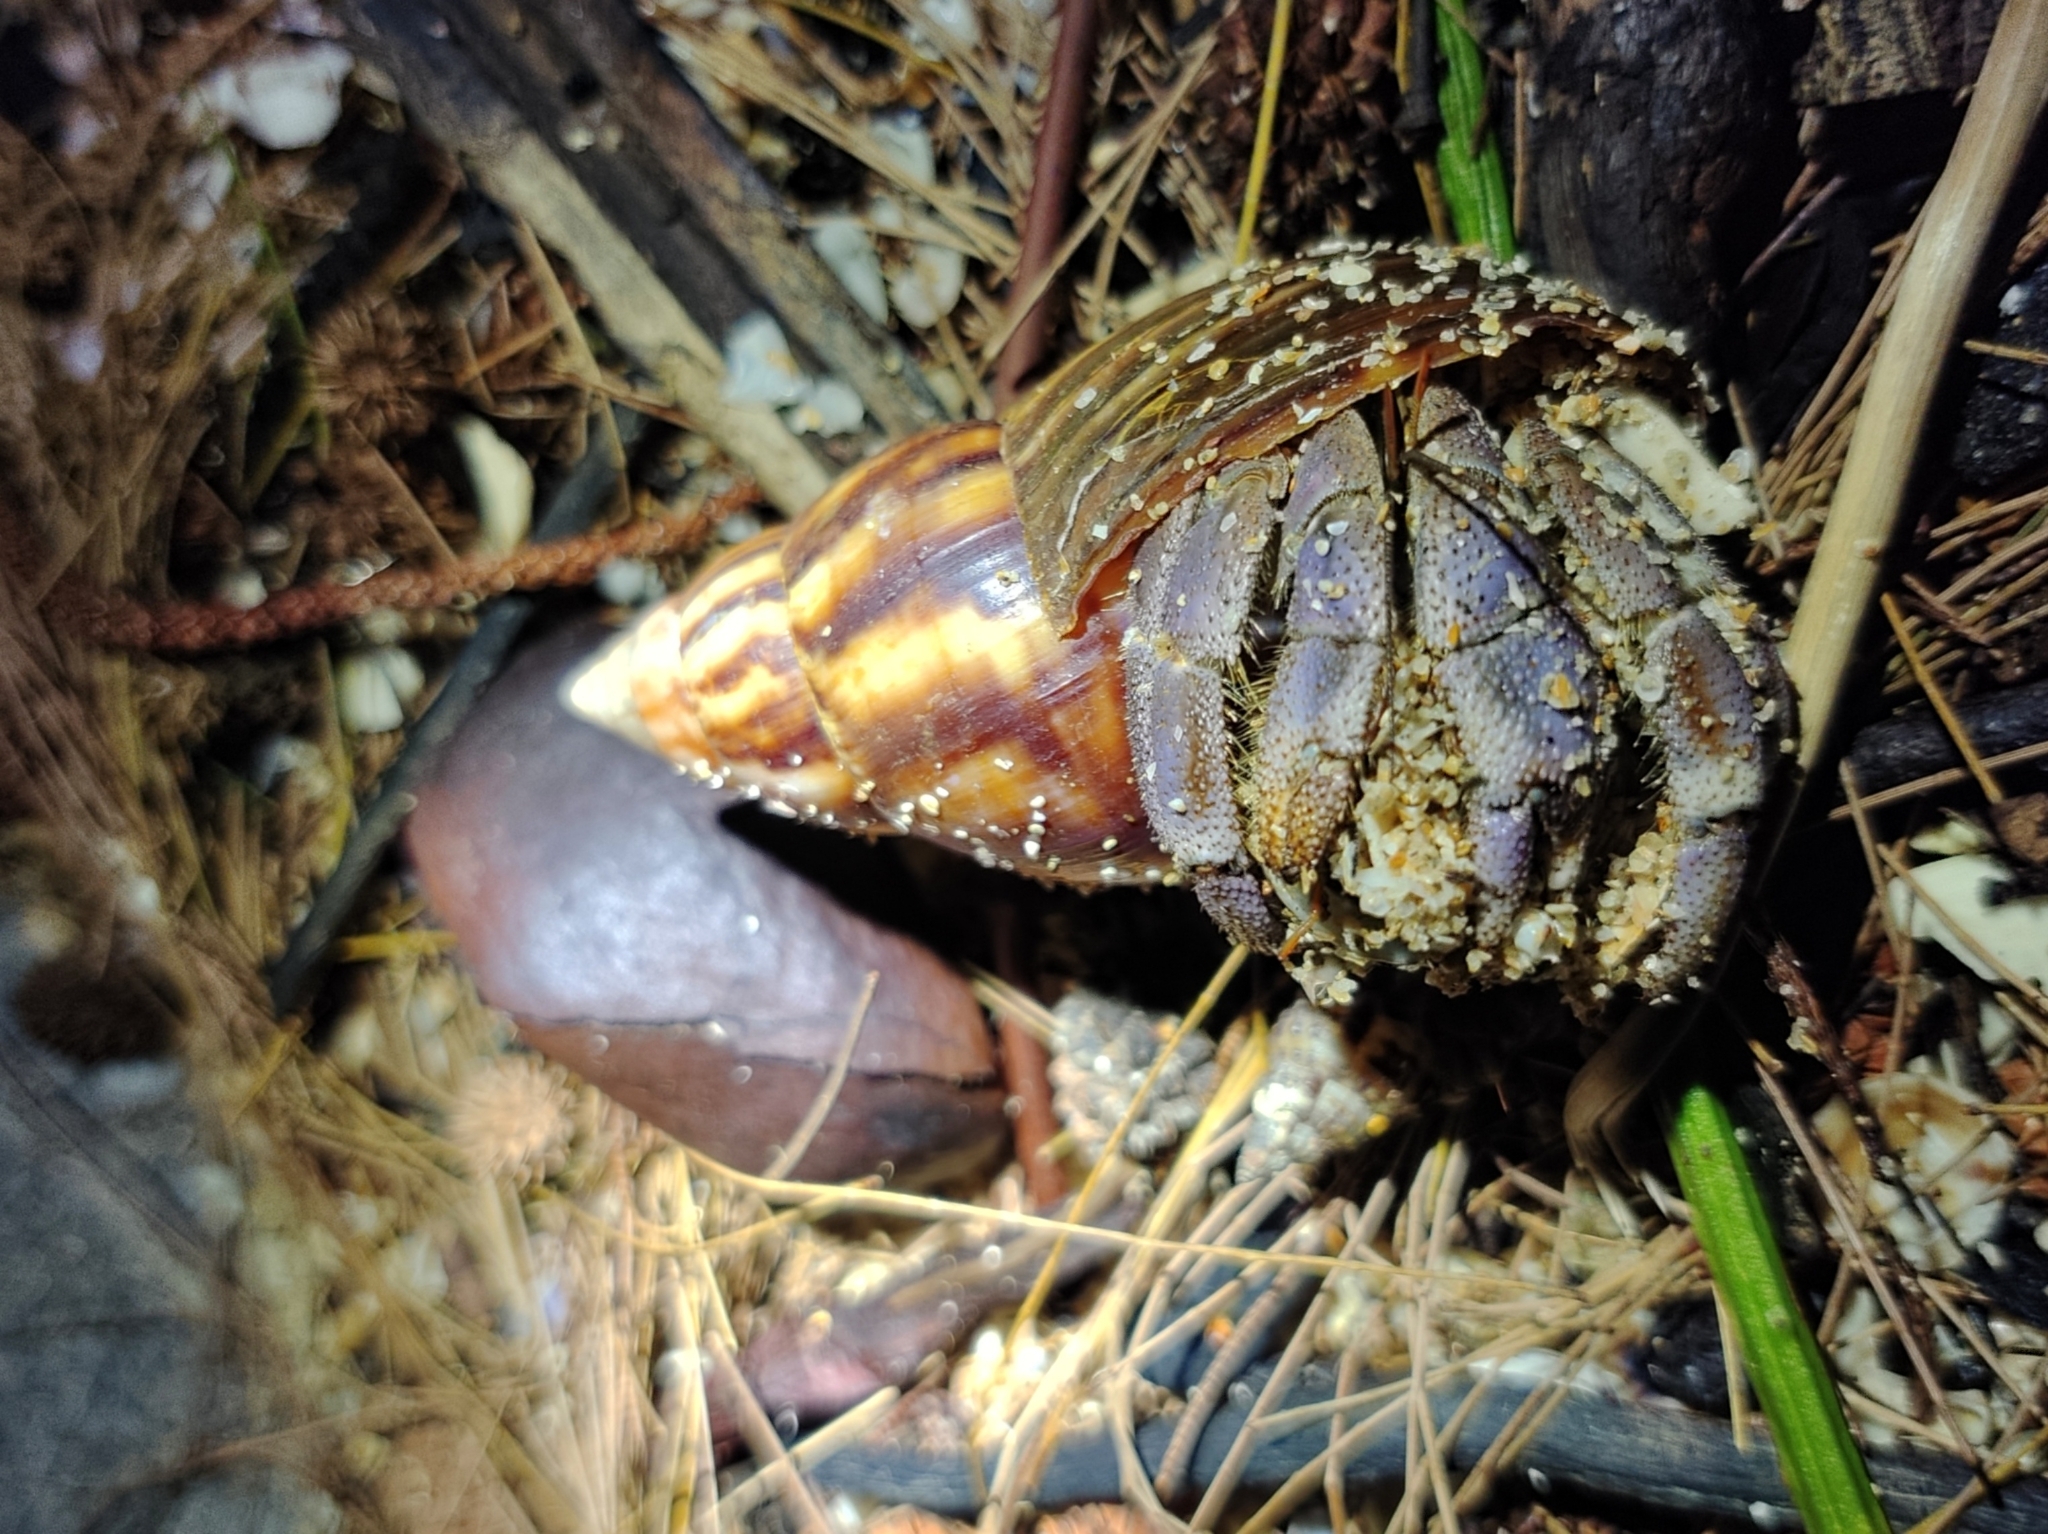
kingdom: Animalia
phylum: Arthropoda
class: Malacostraca
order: Decapoda
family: Coenobitidae
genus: Coenobita
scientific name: Coenobita violascens
